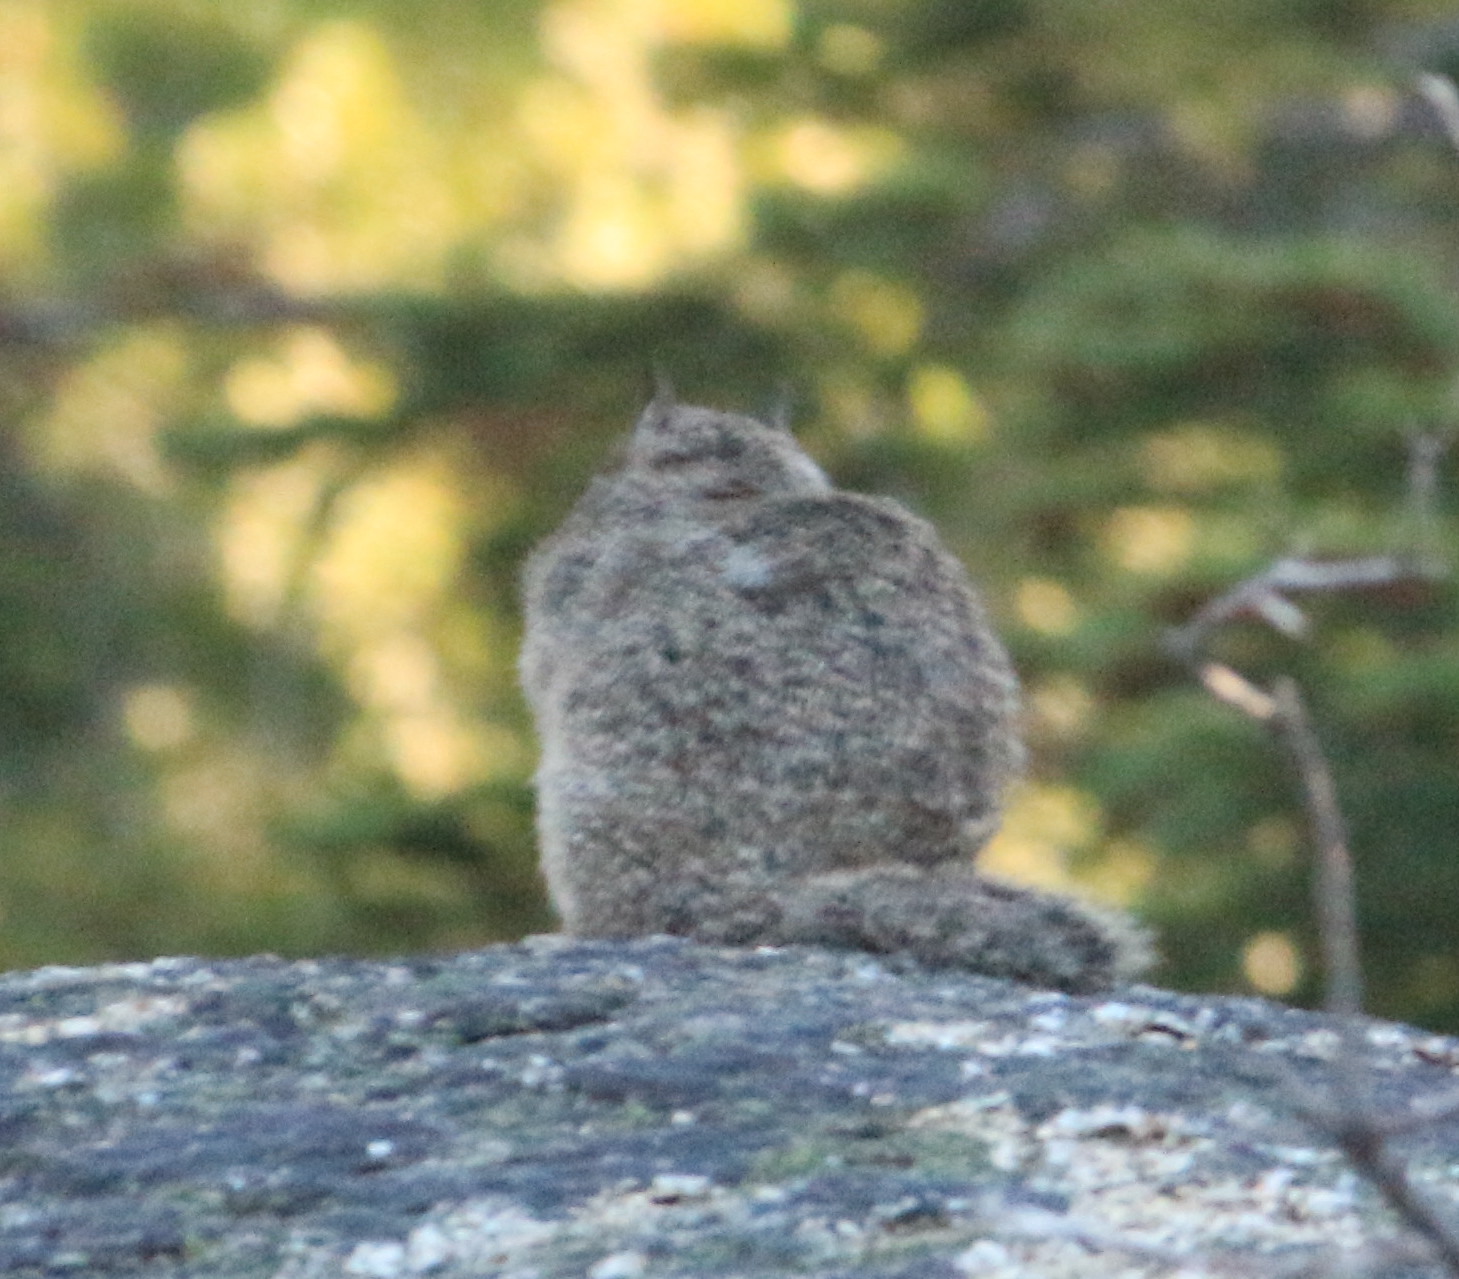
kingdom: Animalia
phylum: Chordata
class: Mammalia
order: Rodentia
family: Sciuridae
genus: Otospermophilus
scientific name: Otospermophilus beecheyi
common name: California ground squirrel
